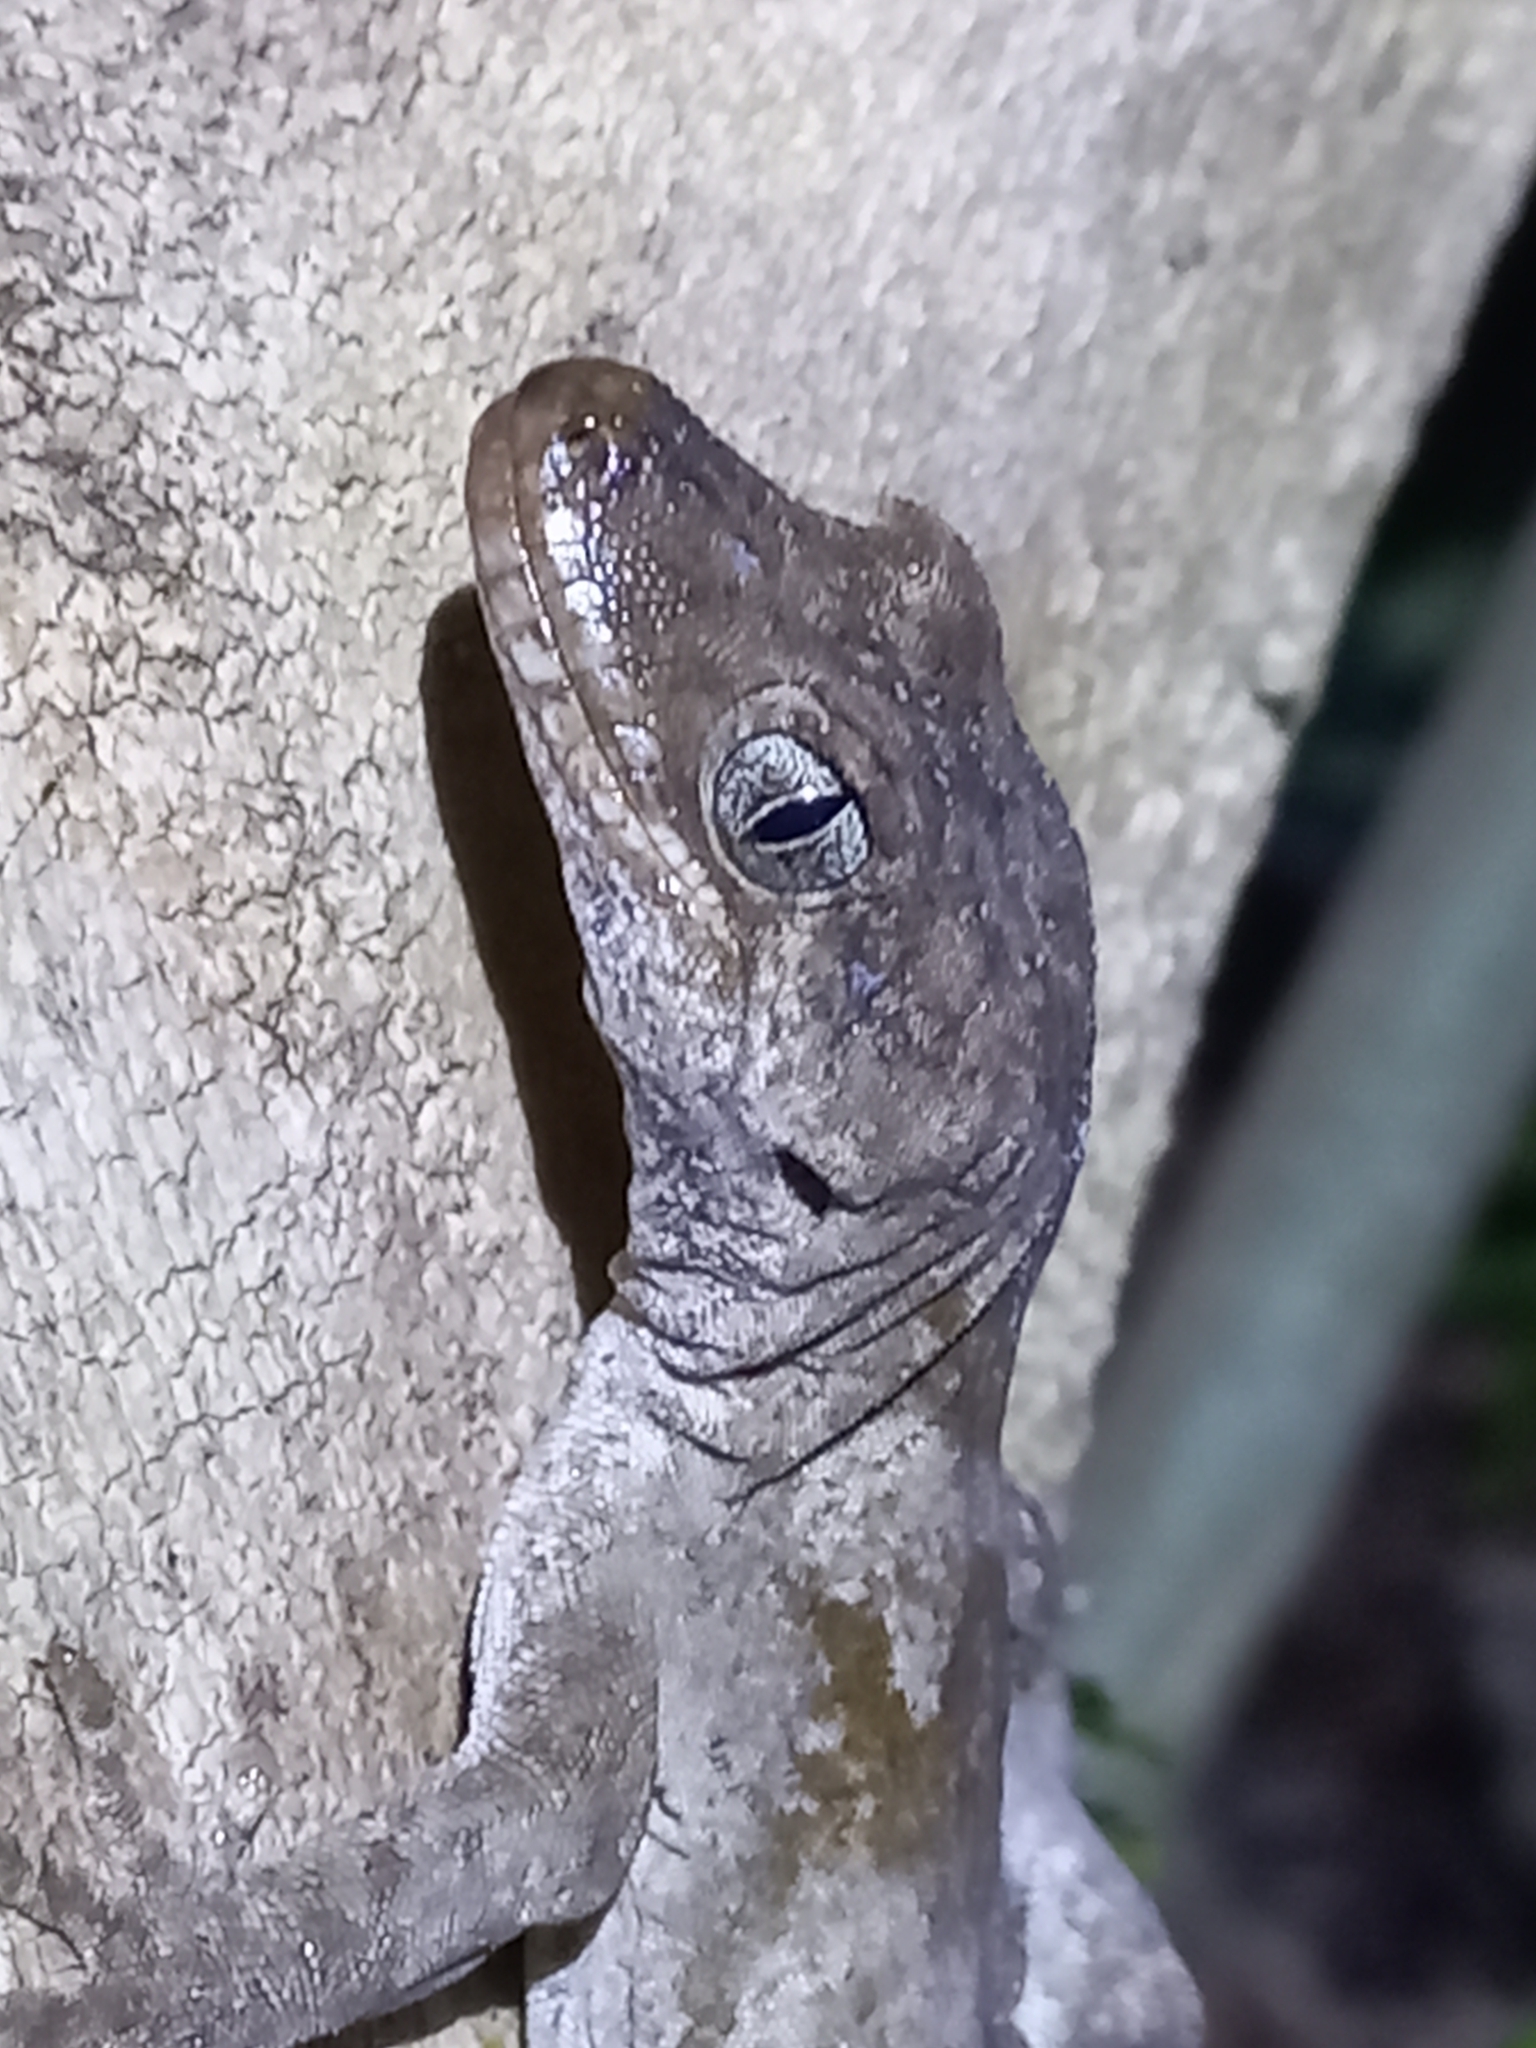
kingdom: Animalia
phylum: Chordata
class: Squamata
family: Diplodactylidae
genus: Mokopirirakau
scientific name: Mokopirirakau granulatus
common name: Forest gecko
